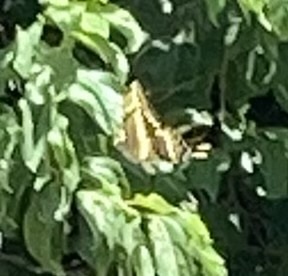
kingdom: Animalia
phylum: Arthropoda
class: Insecta
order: Lepidoptera
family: Papilionidae
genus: Papilio
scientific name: Papilio thoas
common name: King swallowtail
